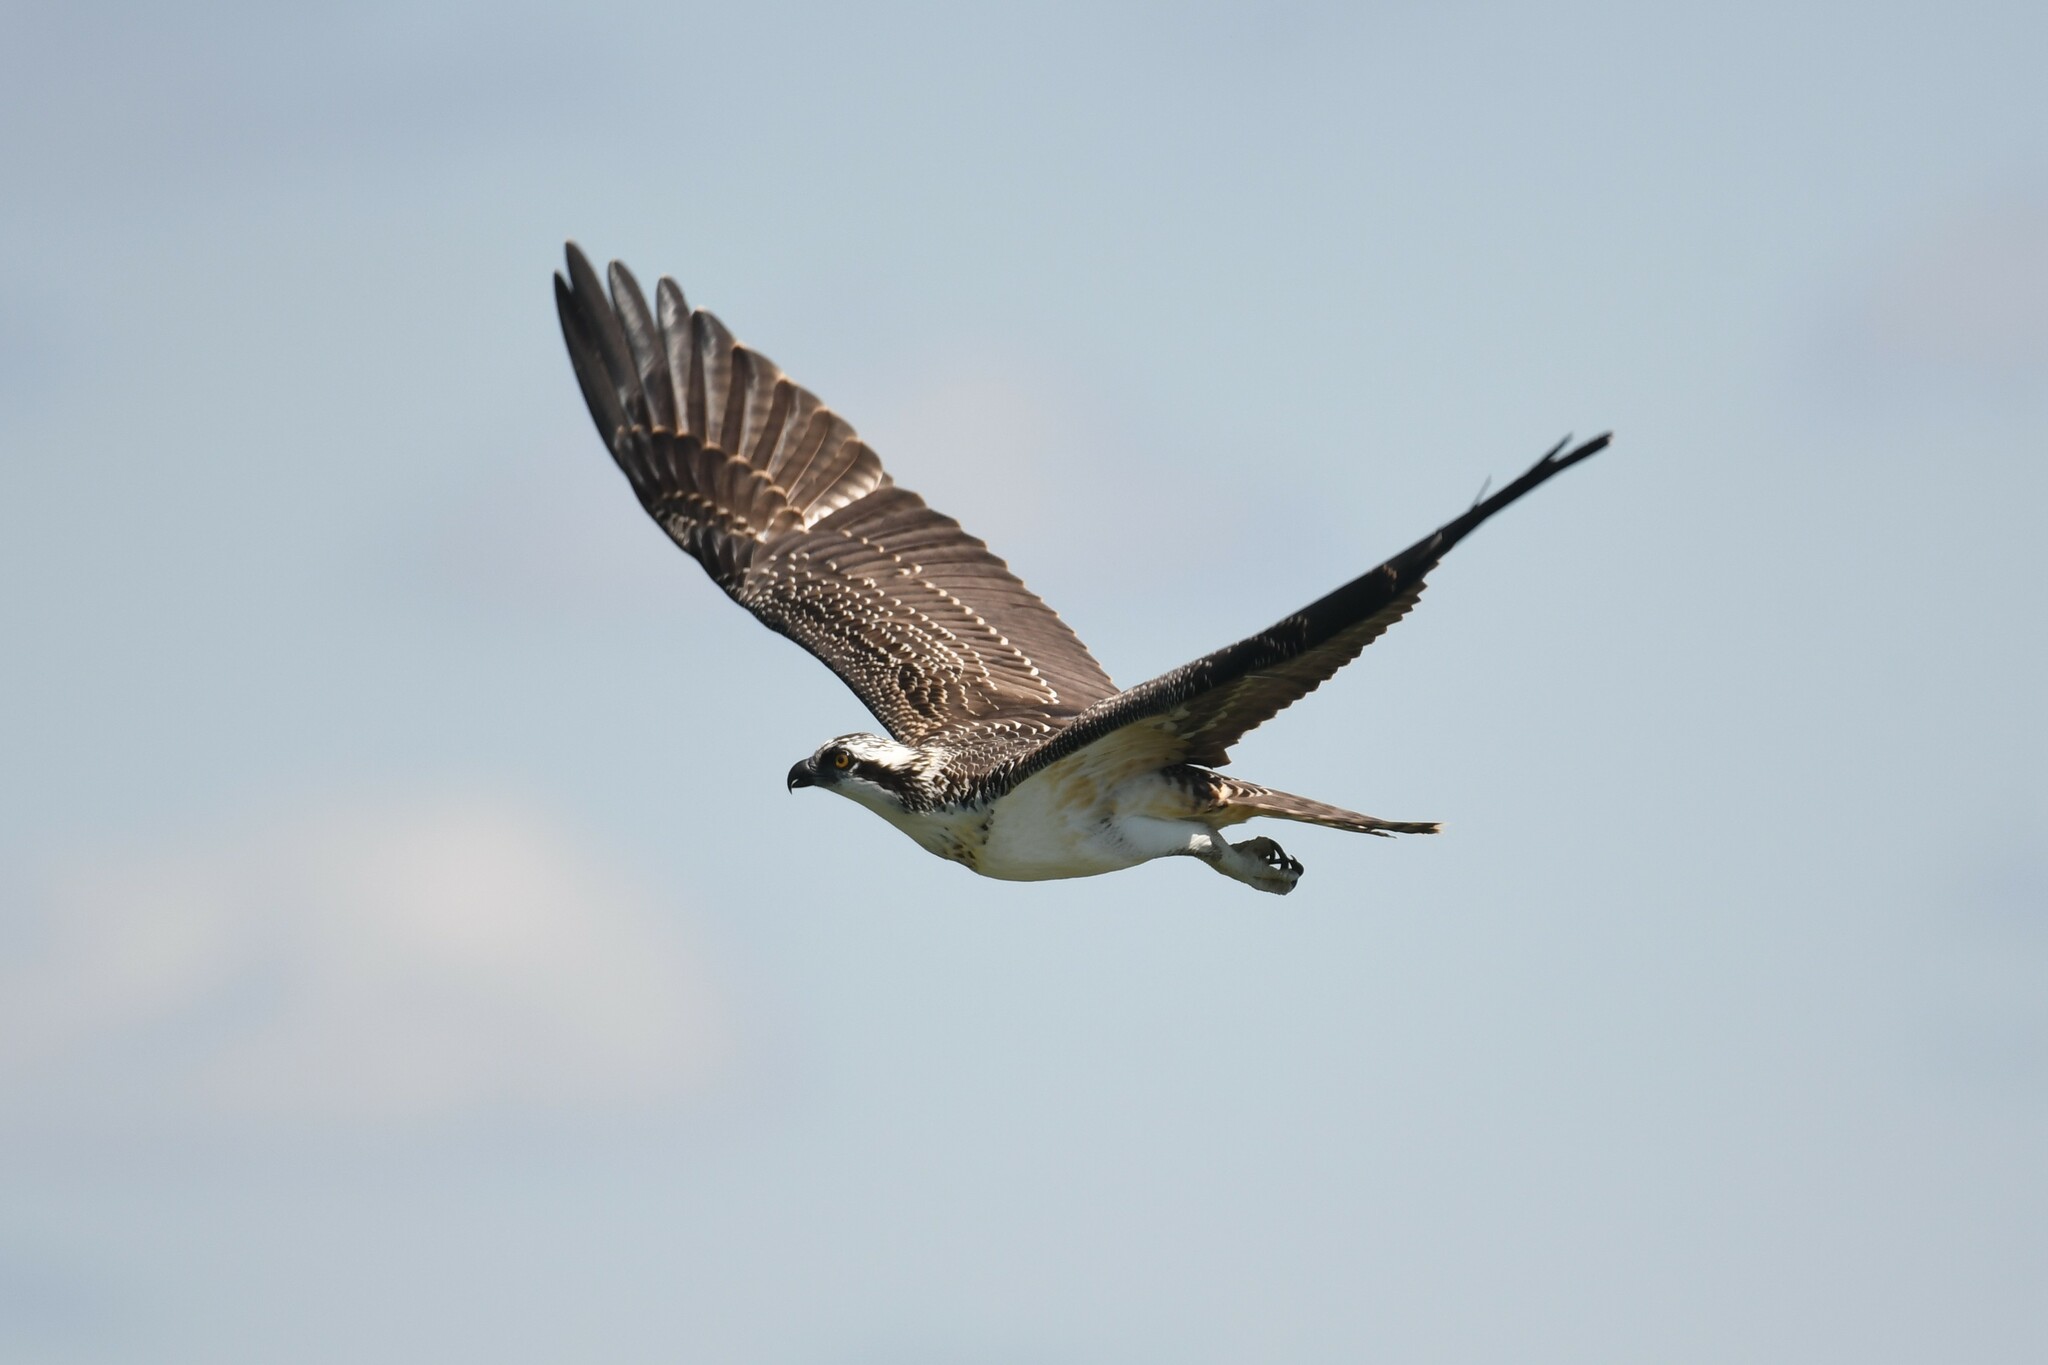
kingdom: Animalia
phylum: Chordata
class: Aves
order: Accipitriformes
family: Pandionidae
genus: Pandion
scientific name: Pandion haliaetus
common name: Osprey
